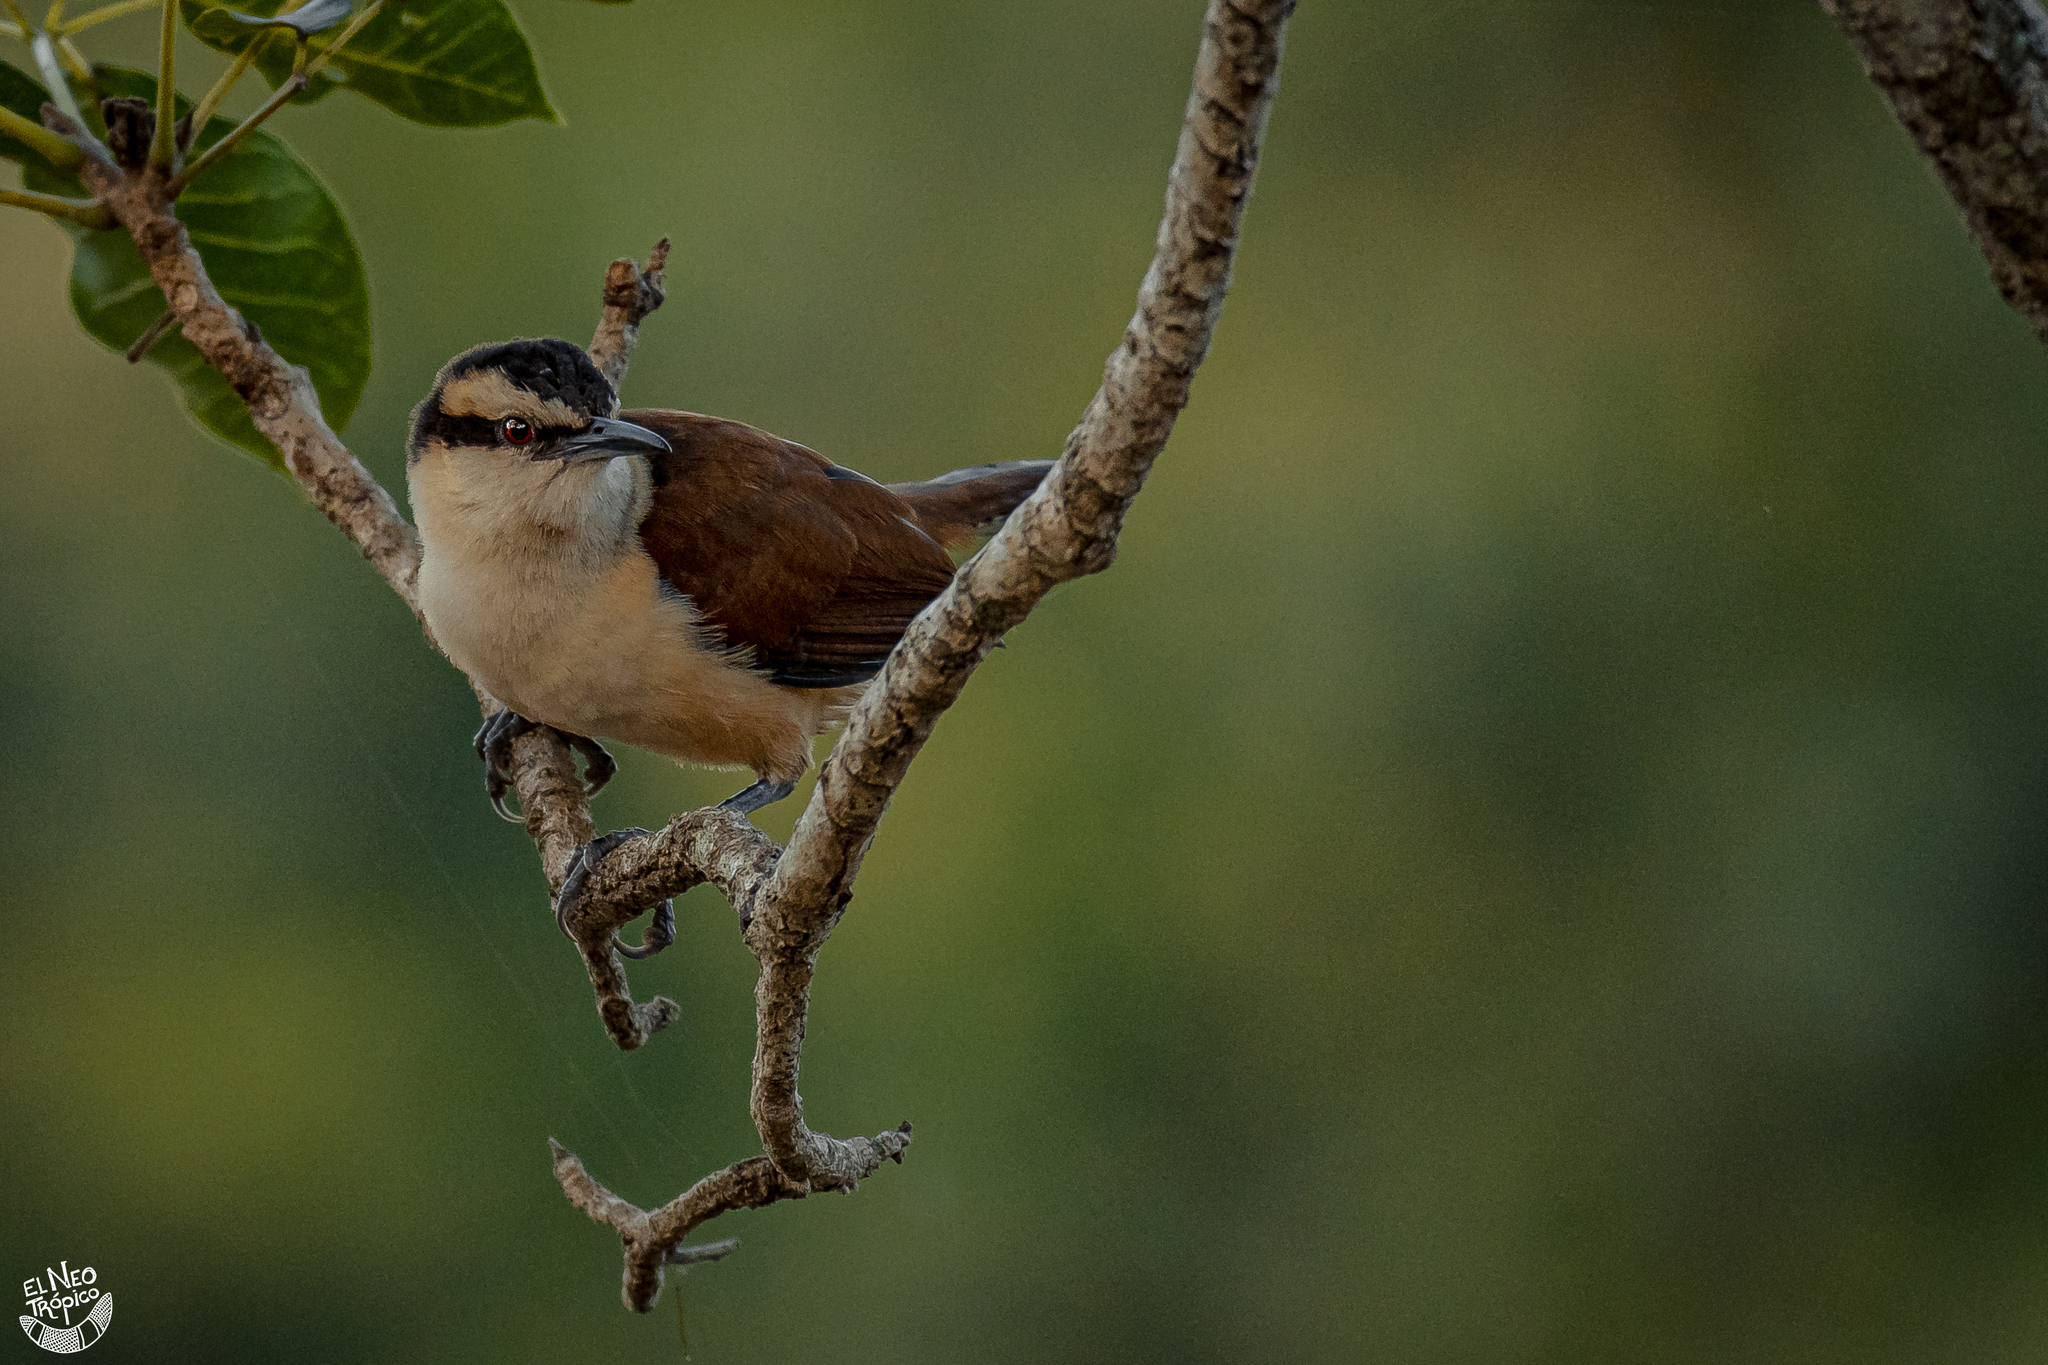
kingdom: Animalia
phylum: Chordata
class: Aves
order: Passeriformes
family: Troglodytidae
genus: Campylorhynchus
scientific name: Campylorhynchus chiapensis
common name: Giant wren
